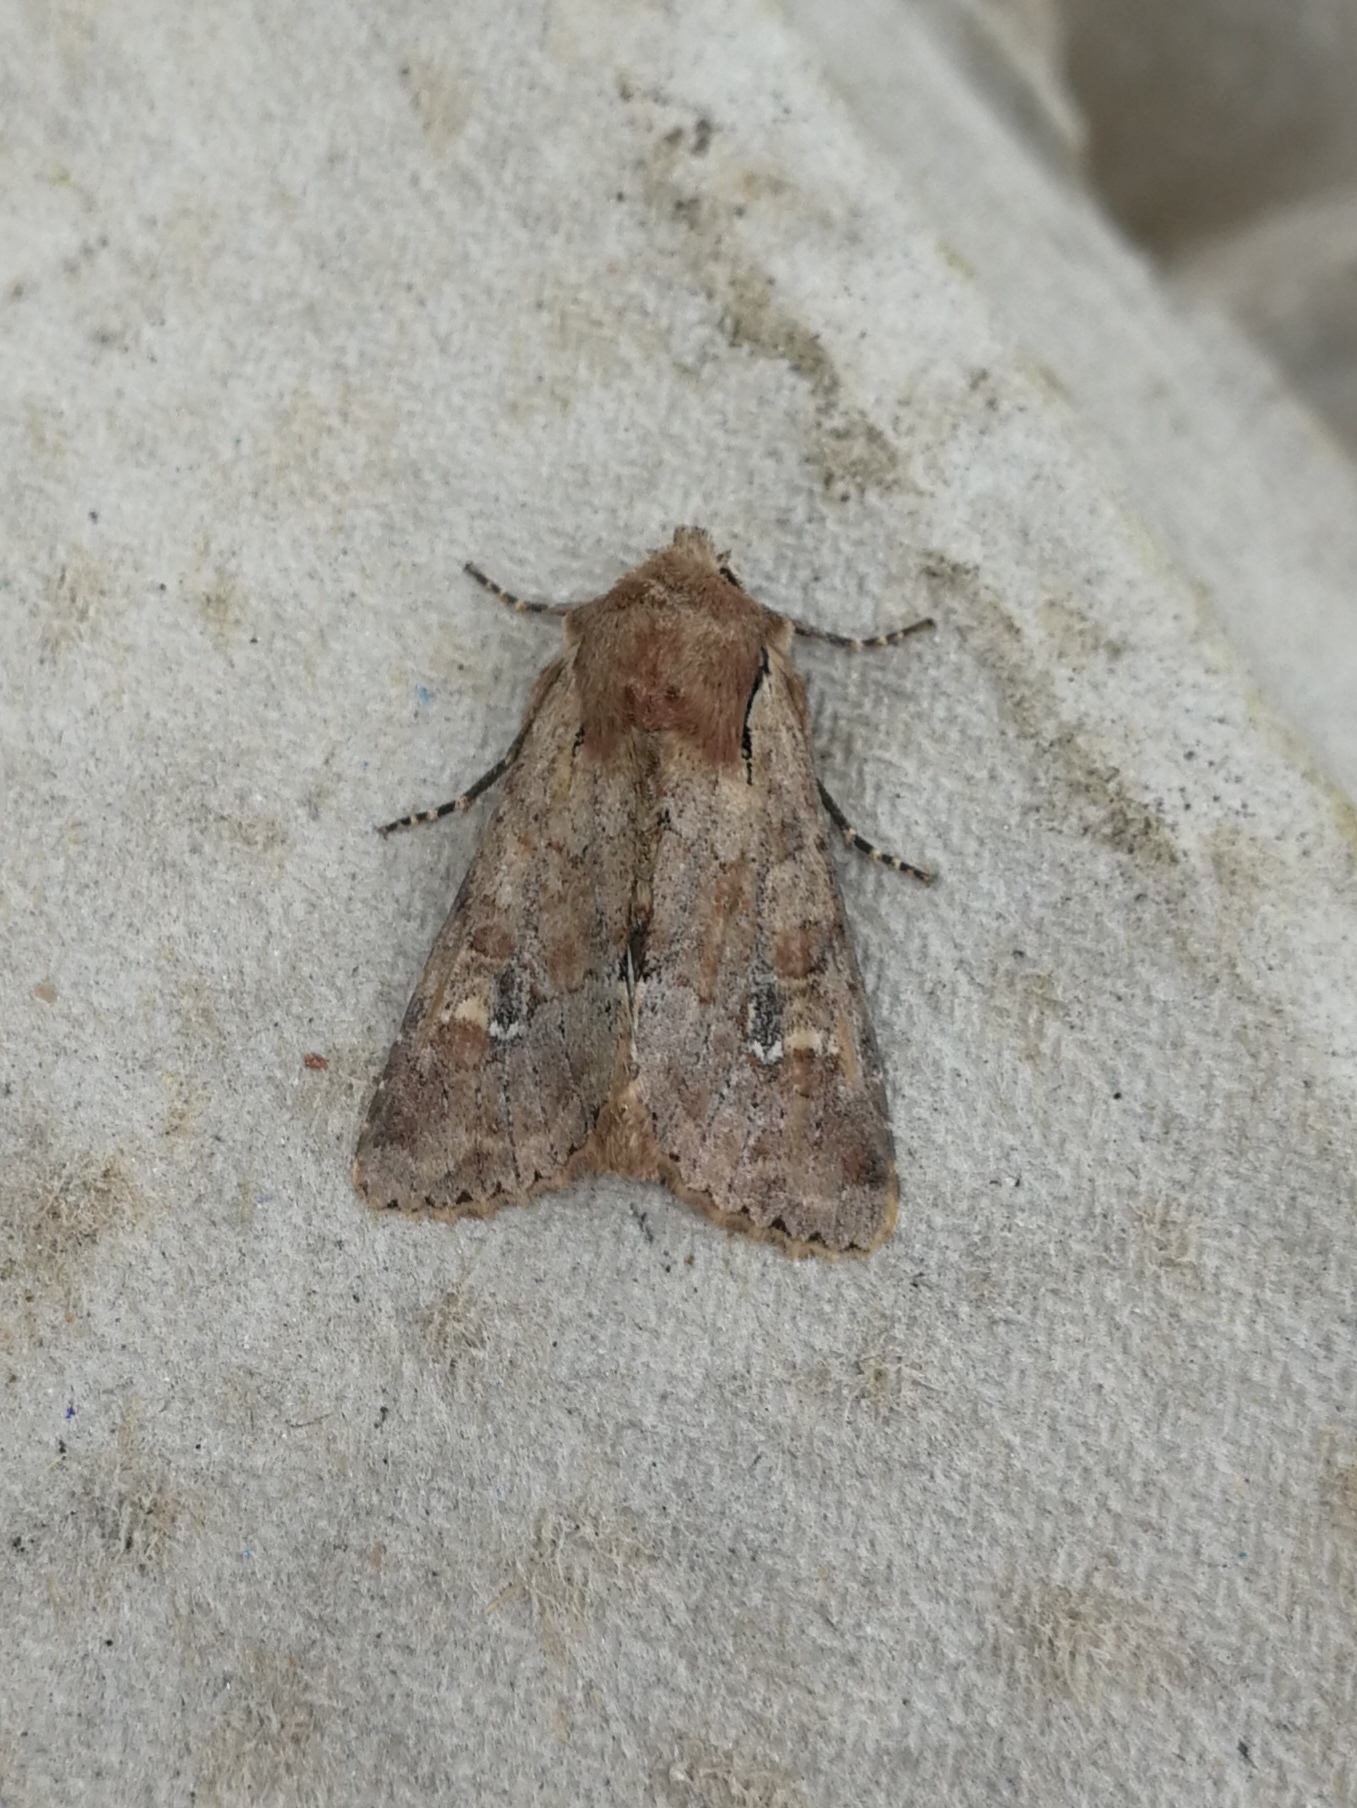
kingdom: Animalia
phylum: Arthropoda
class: Insecta
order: Lepidoptera
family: Noctuidae
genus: Apamea
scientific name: Apamea sordens
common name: Rustic shoulder-knot
